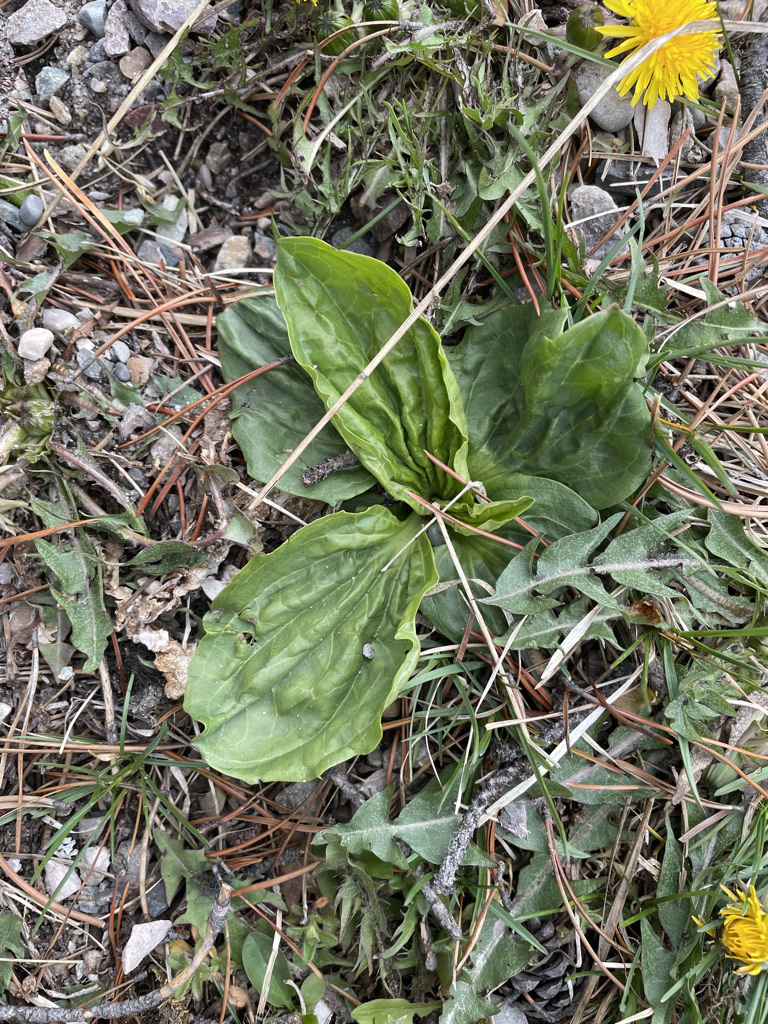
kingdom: Plantae
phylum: Tracheophyta
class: Magnoliopsida
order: Lamiales
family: Plantaginaceae
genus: Plantago
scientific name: Plantago major
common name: Common plantain
